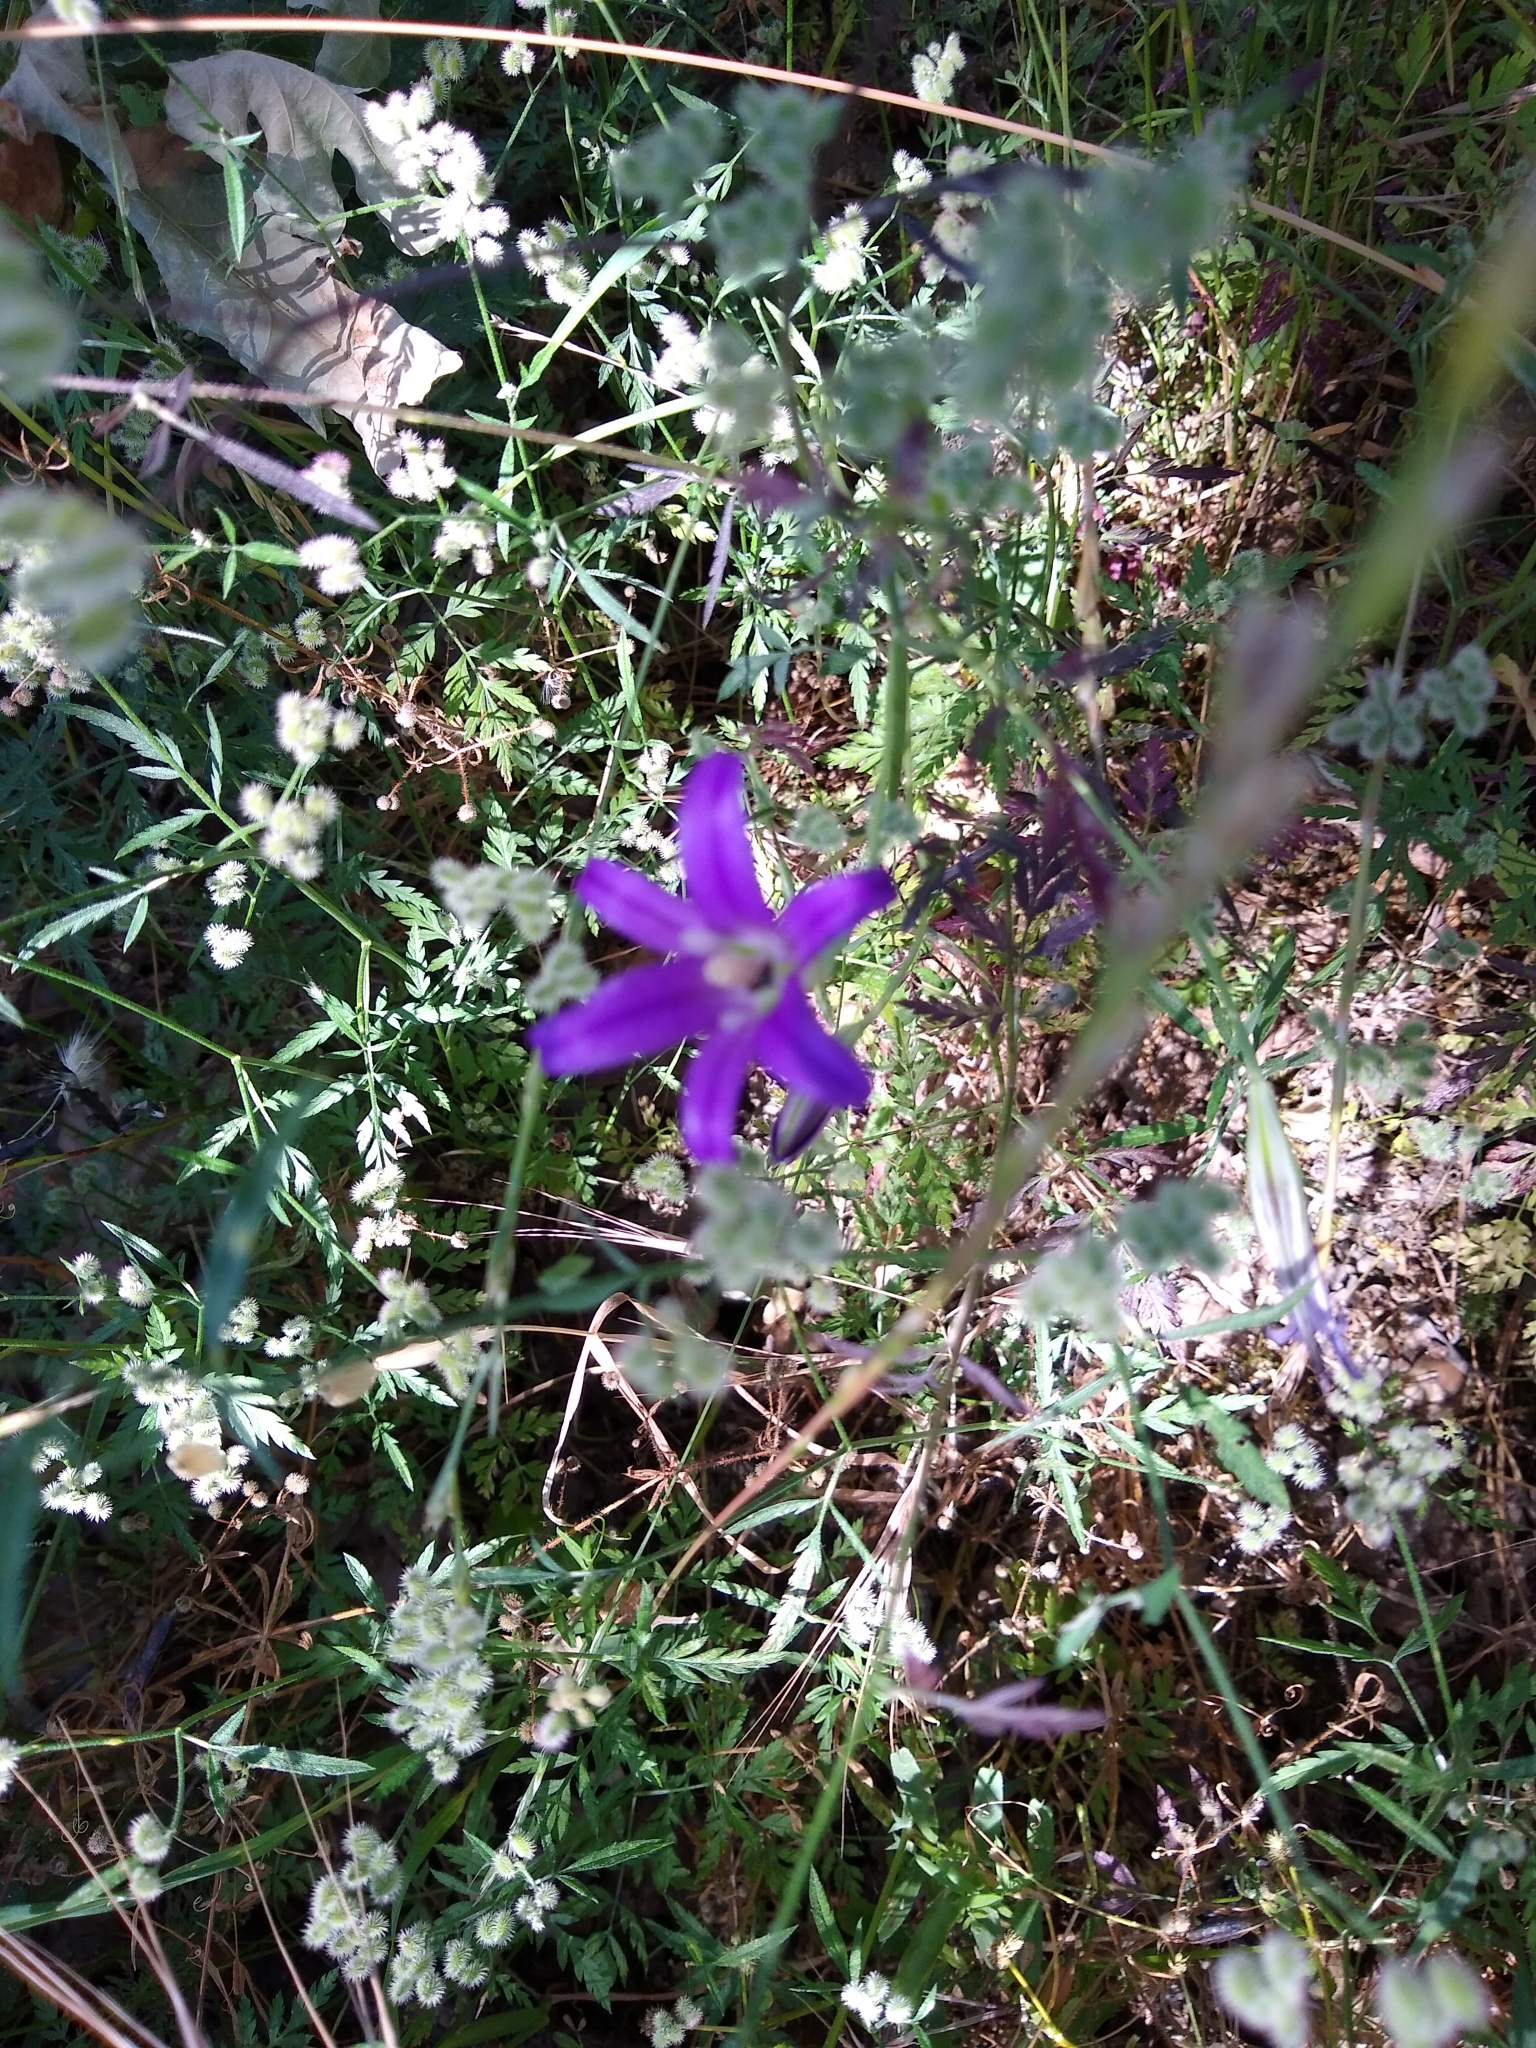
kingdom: Plantae
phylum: Tracheophyta
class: Liliopsida
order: Asparagales
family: Asparagaceae
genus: Brodiaea
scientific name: Brodiaea elegans
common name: Elegant cluster-lily
